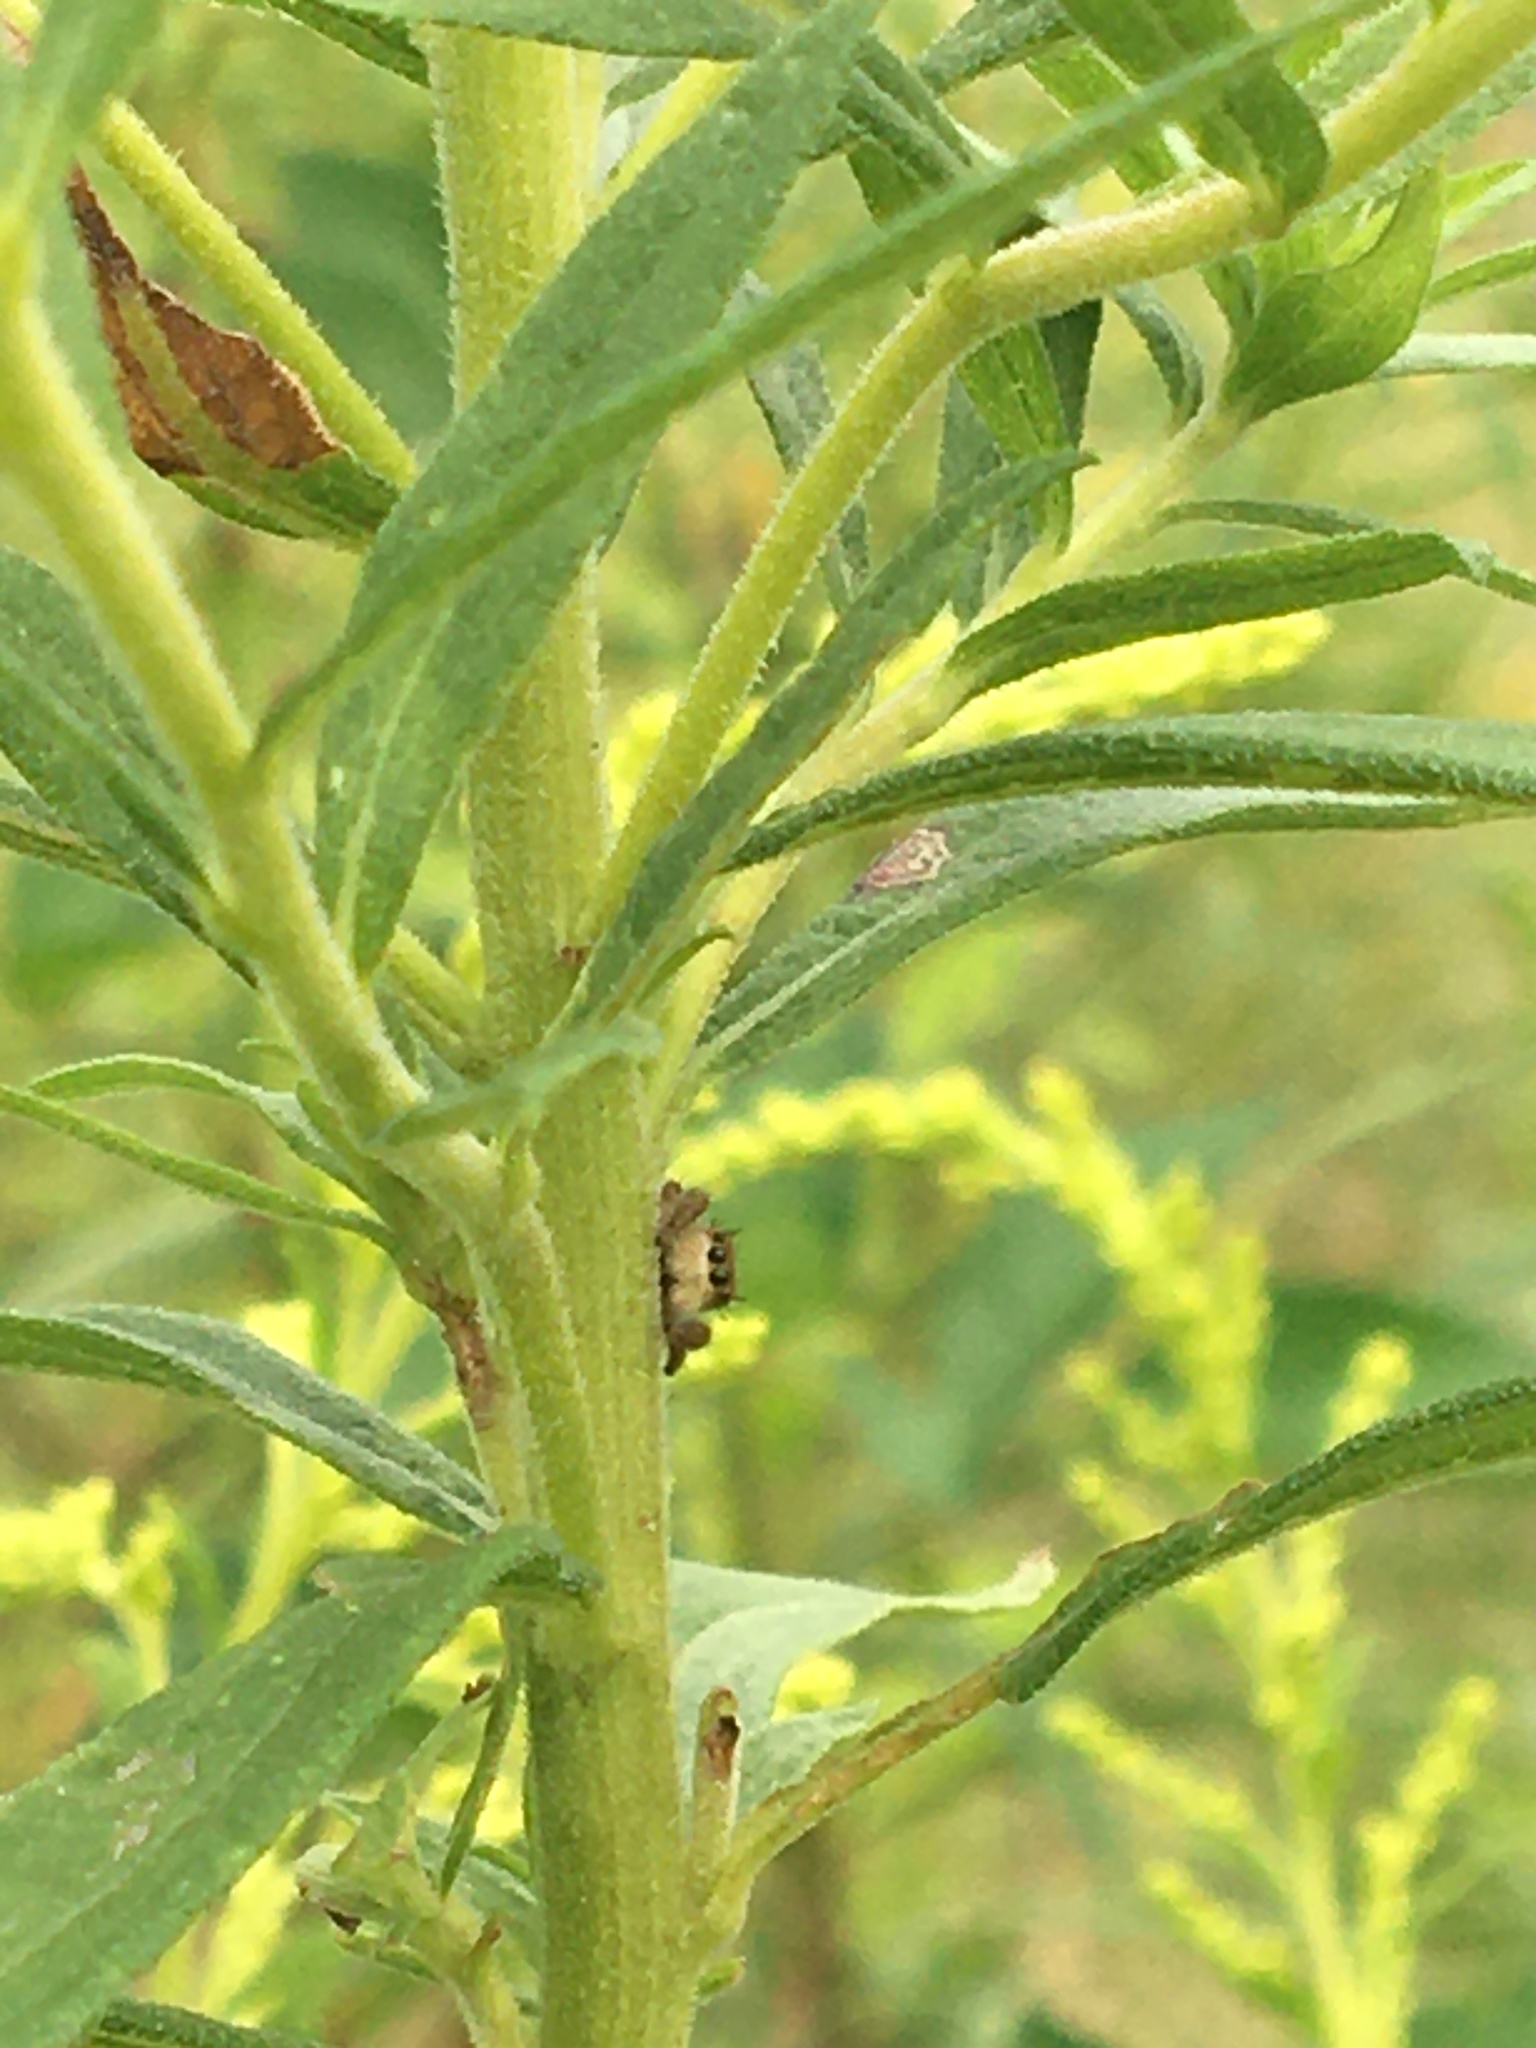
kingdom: Animalia
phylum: Arthropoda
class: Arachnida
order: Araneae
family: Salticidae
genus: Phidippus
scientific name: Phidippus
